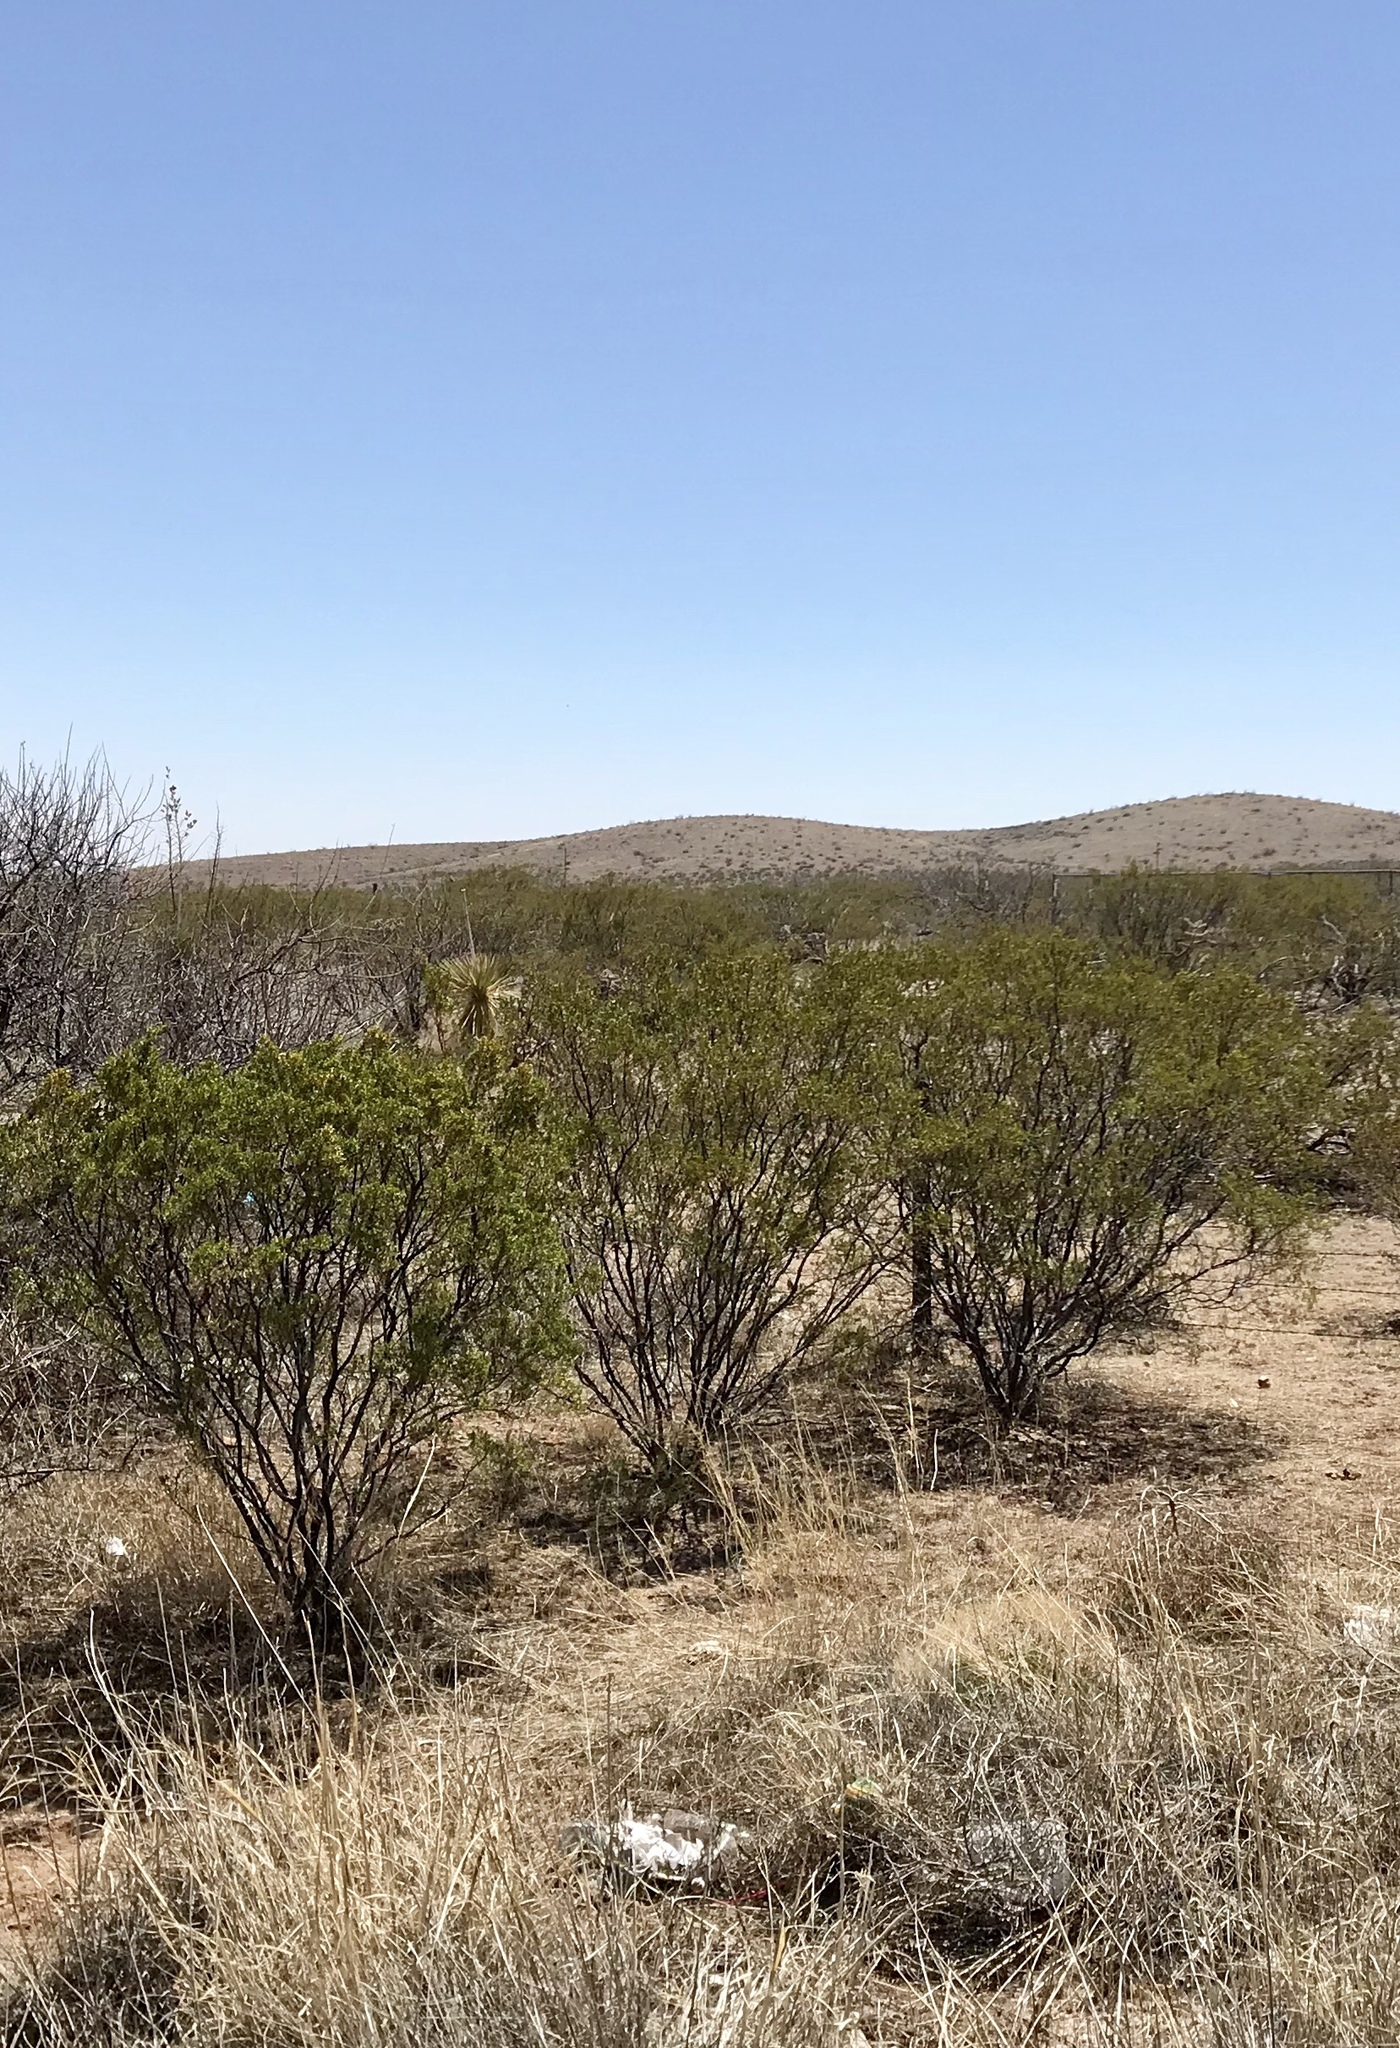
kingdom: Plantae
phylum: Tracheophyta
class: Magnoliopsida
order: Zygophyllales
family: Zygophyllaceae
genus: Larrea
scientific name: Larrea tridentata
